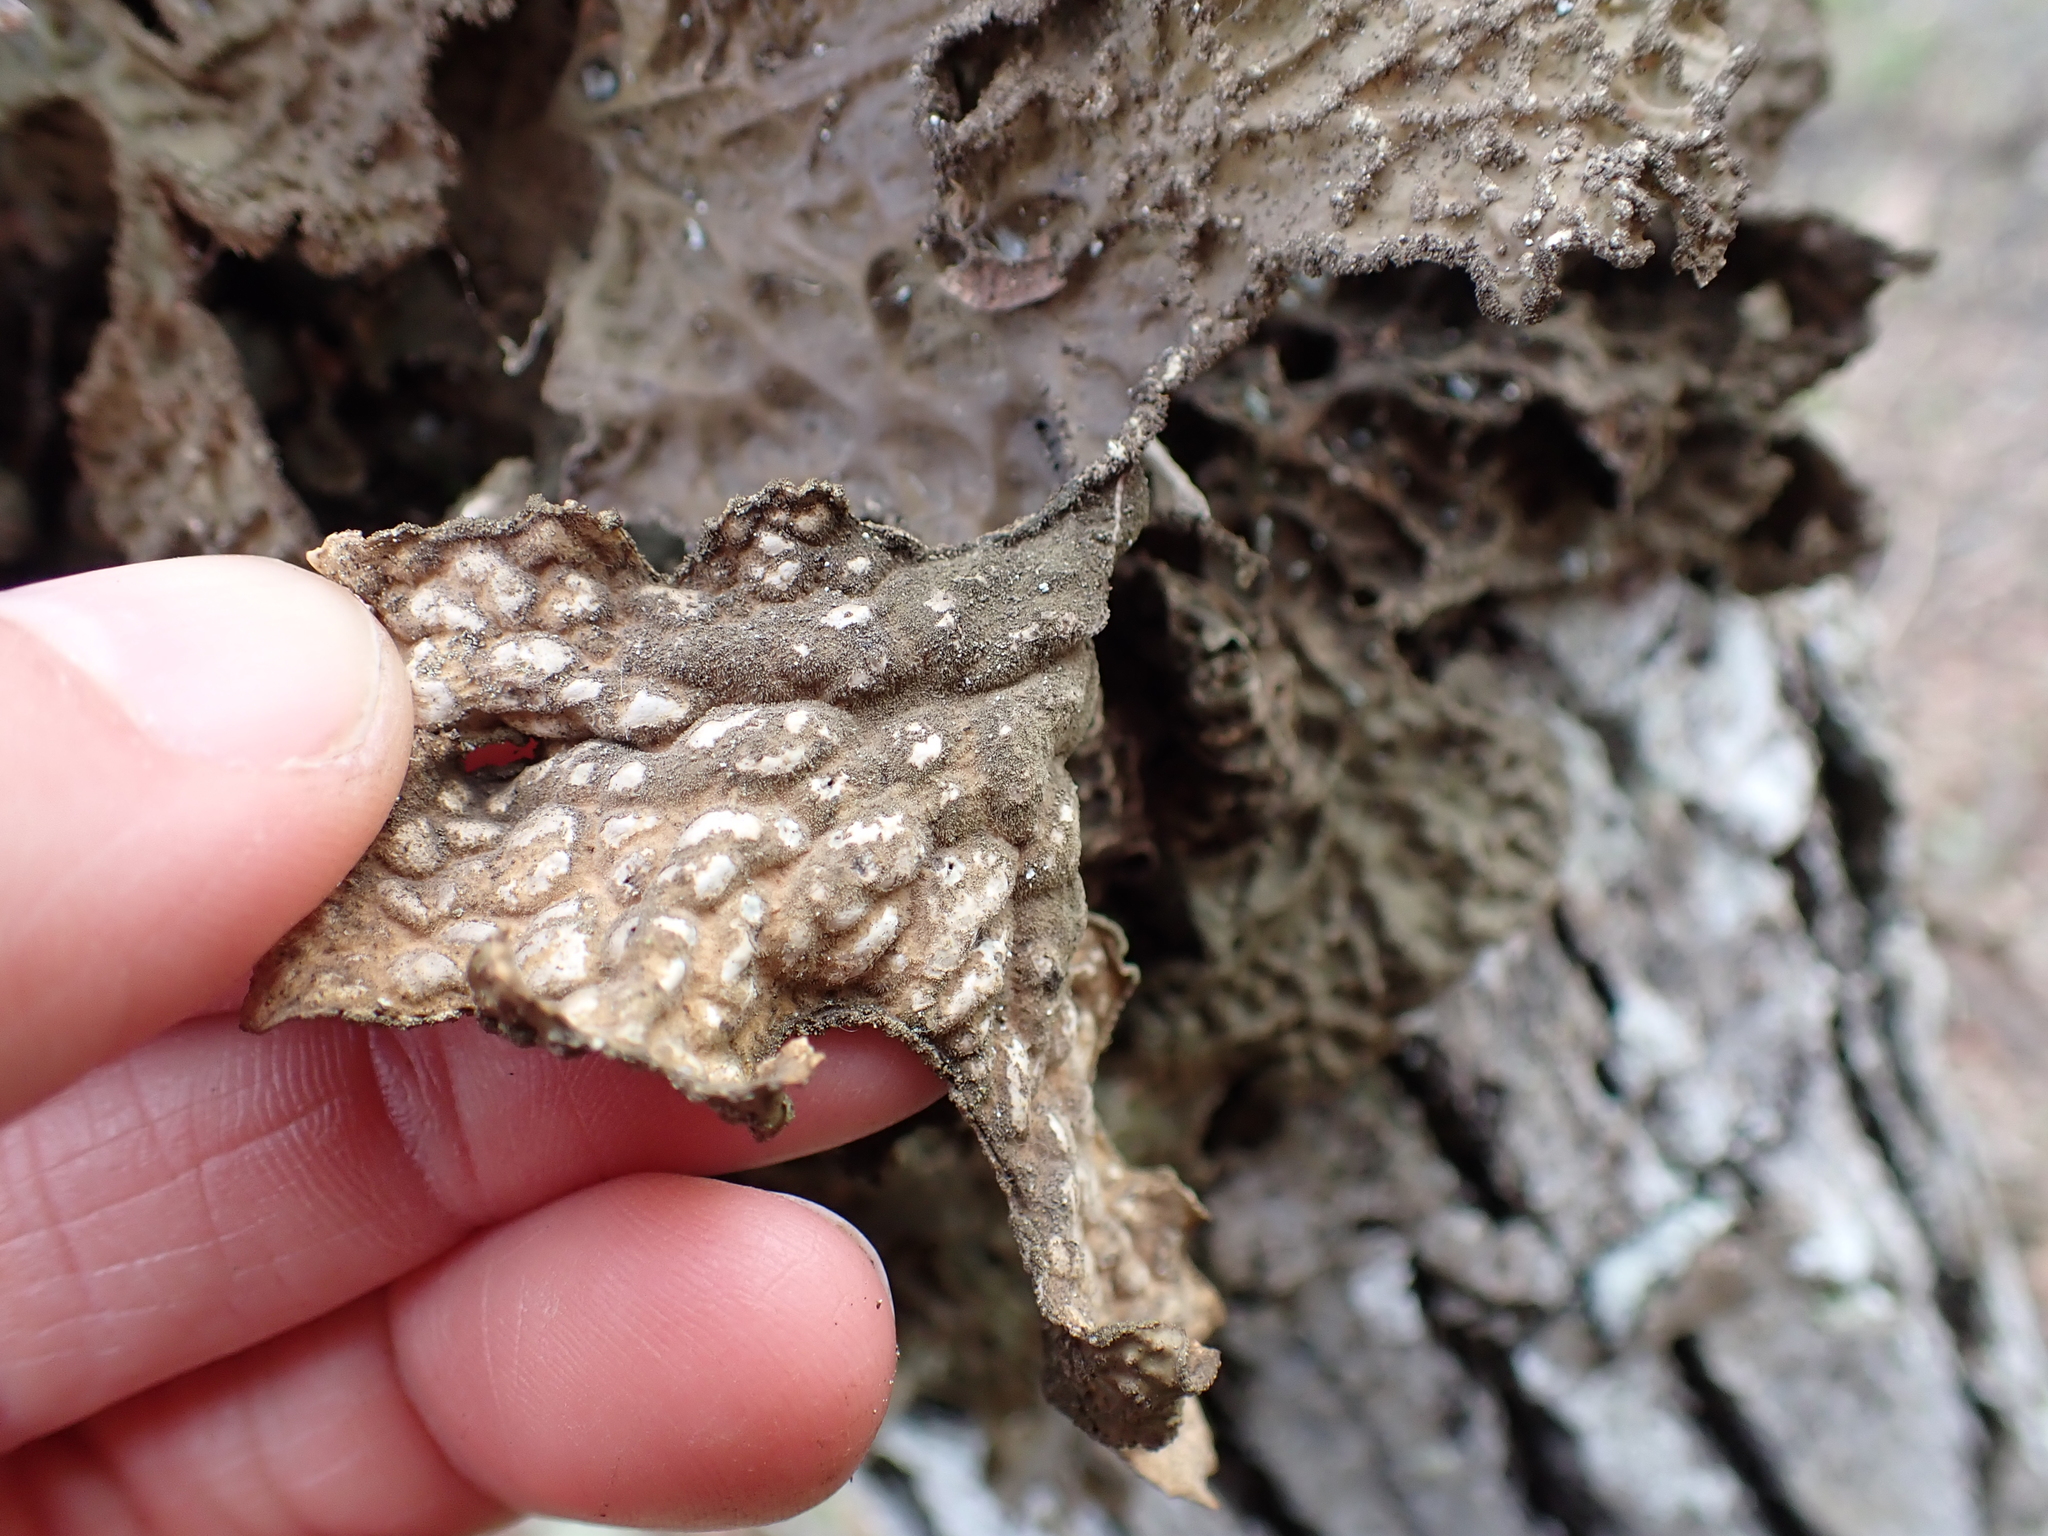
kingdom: Fungi
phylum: Ascomycota
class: Lecanoromycetes
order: Peltigerales
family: Lobariaceae
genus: Lobaria
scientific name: Lobaria pulmonaria
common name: Lungwort
